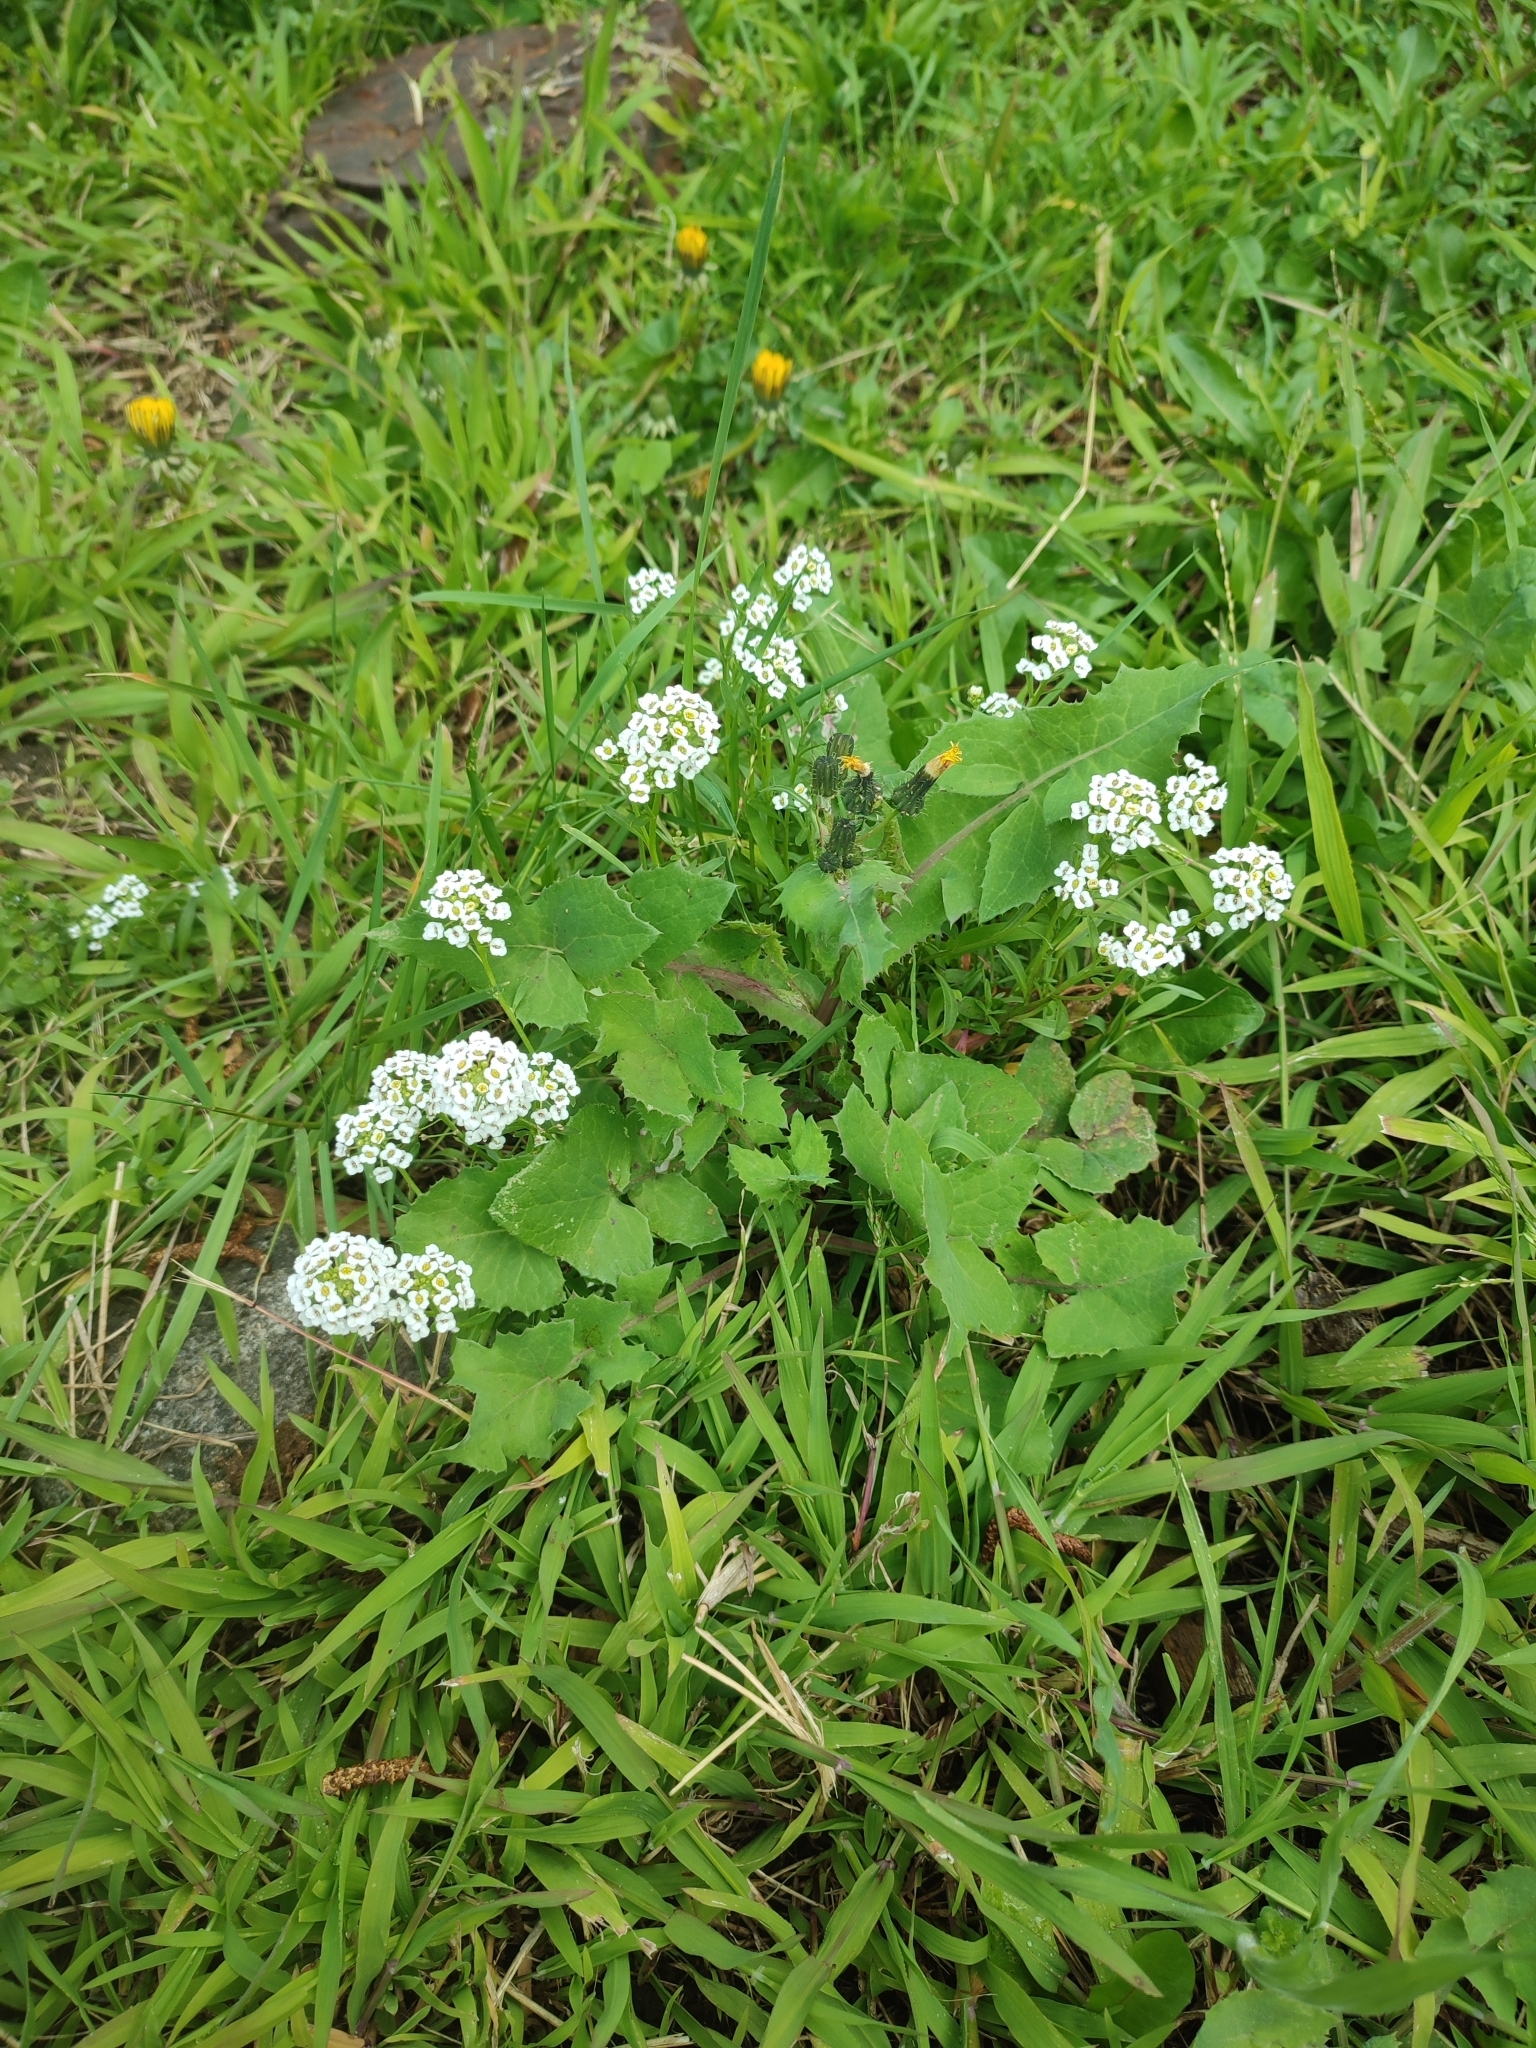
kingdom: Plantae
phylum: Tracheophyta
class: Magnoliopsida
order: Brassicales
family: Brassicaceae
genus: Lobularia
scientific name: Lobularia maritima
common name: Sweet alison
